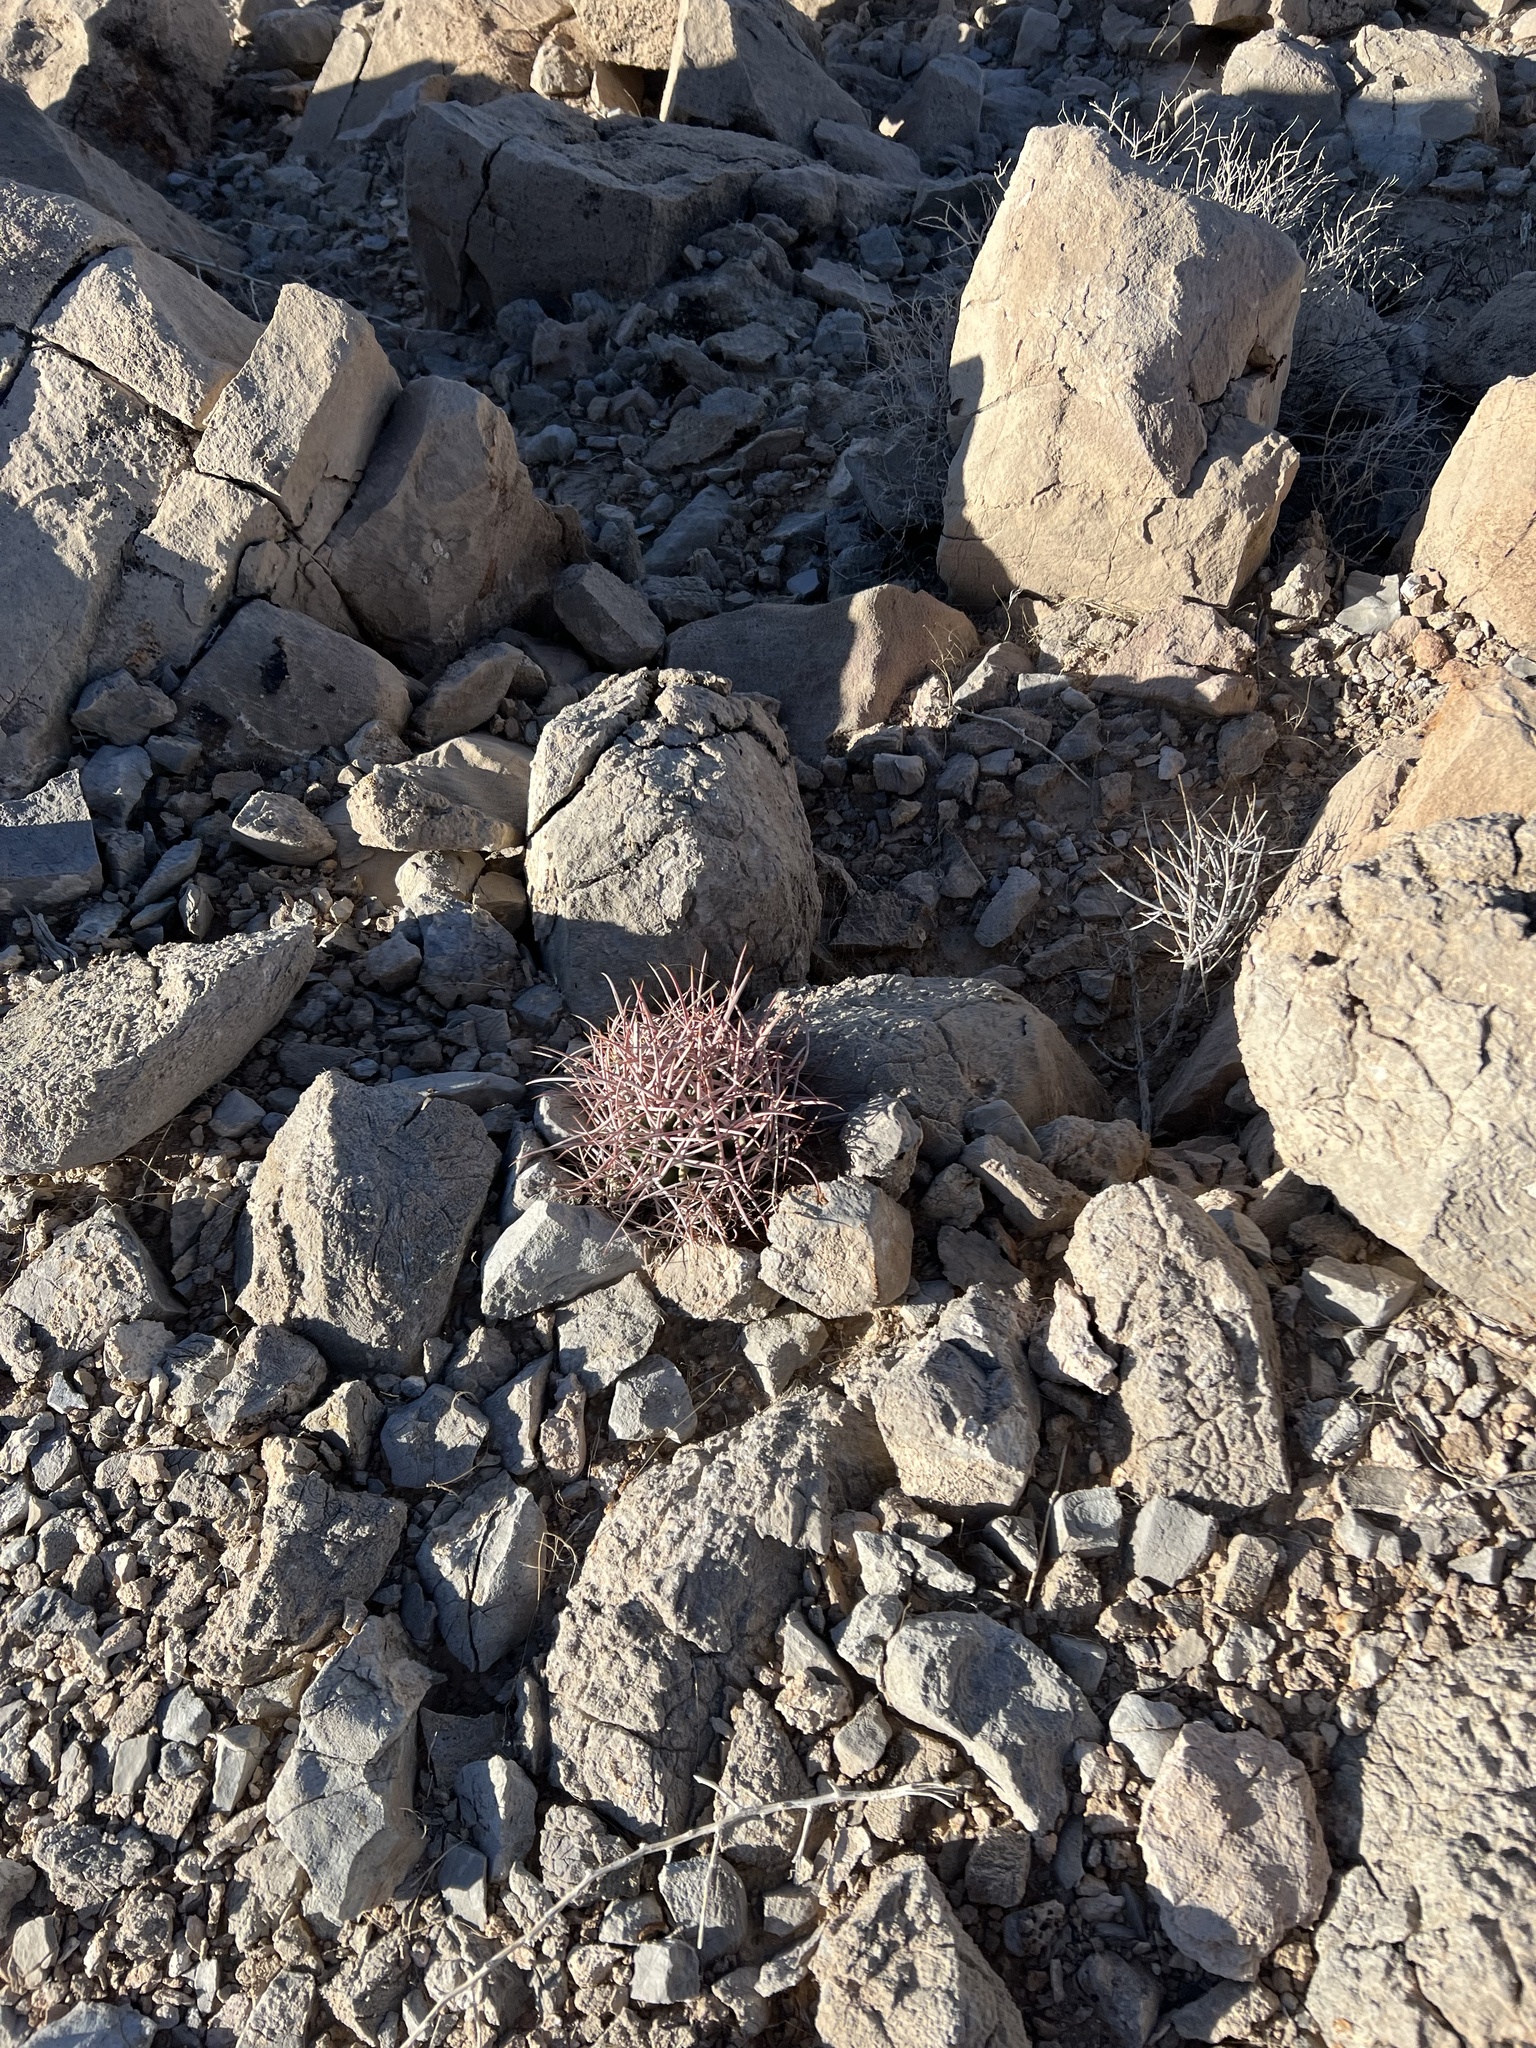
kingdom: Plantae
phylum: Tracheophyta
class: Magnoliopsida
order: Caryophyllales
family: Cactaceae
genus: Echinocactus
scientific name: Echinocactus polycephalus
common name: Cottontop cactus
